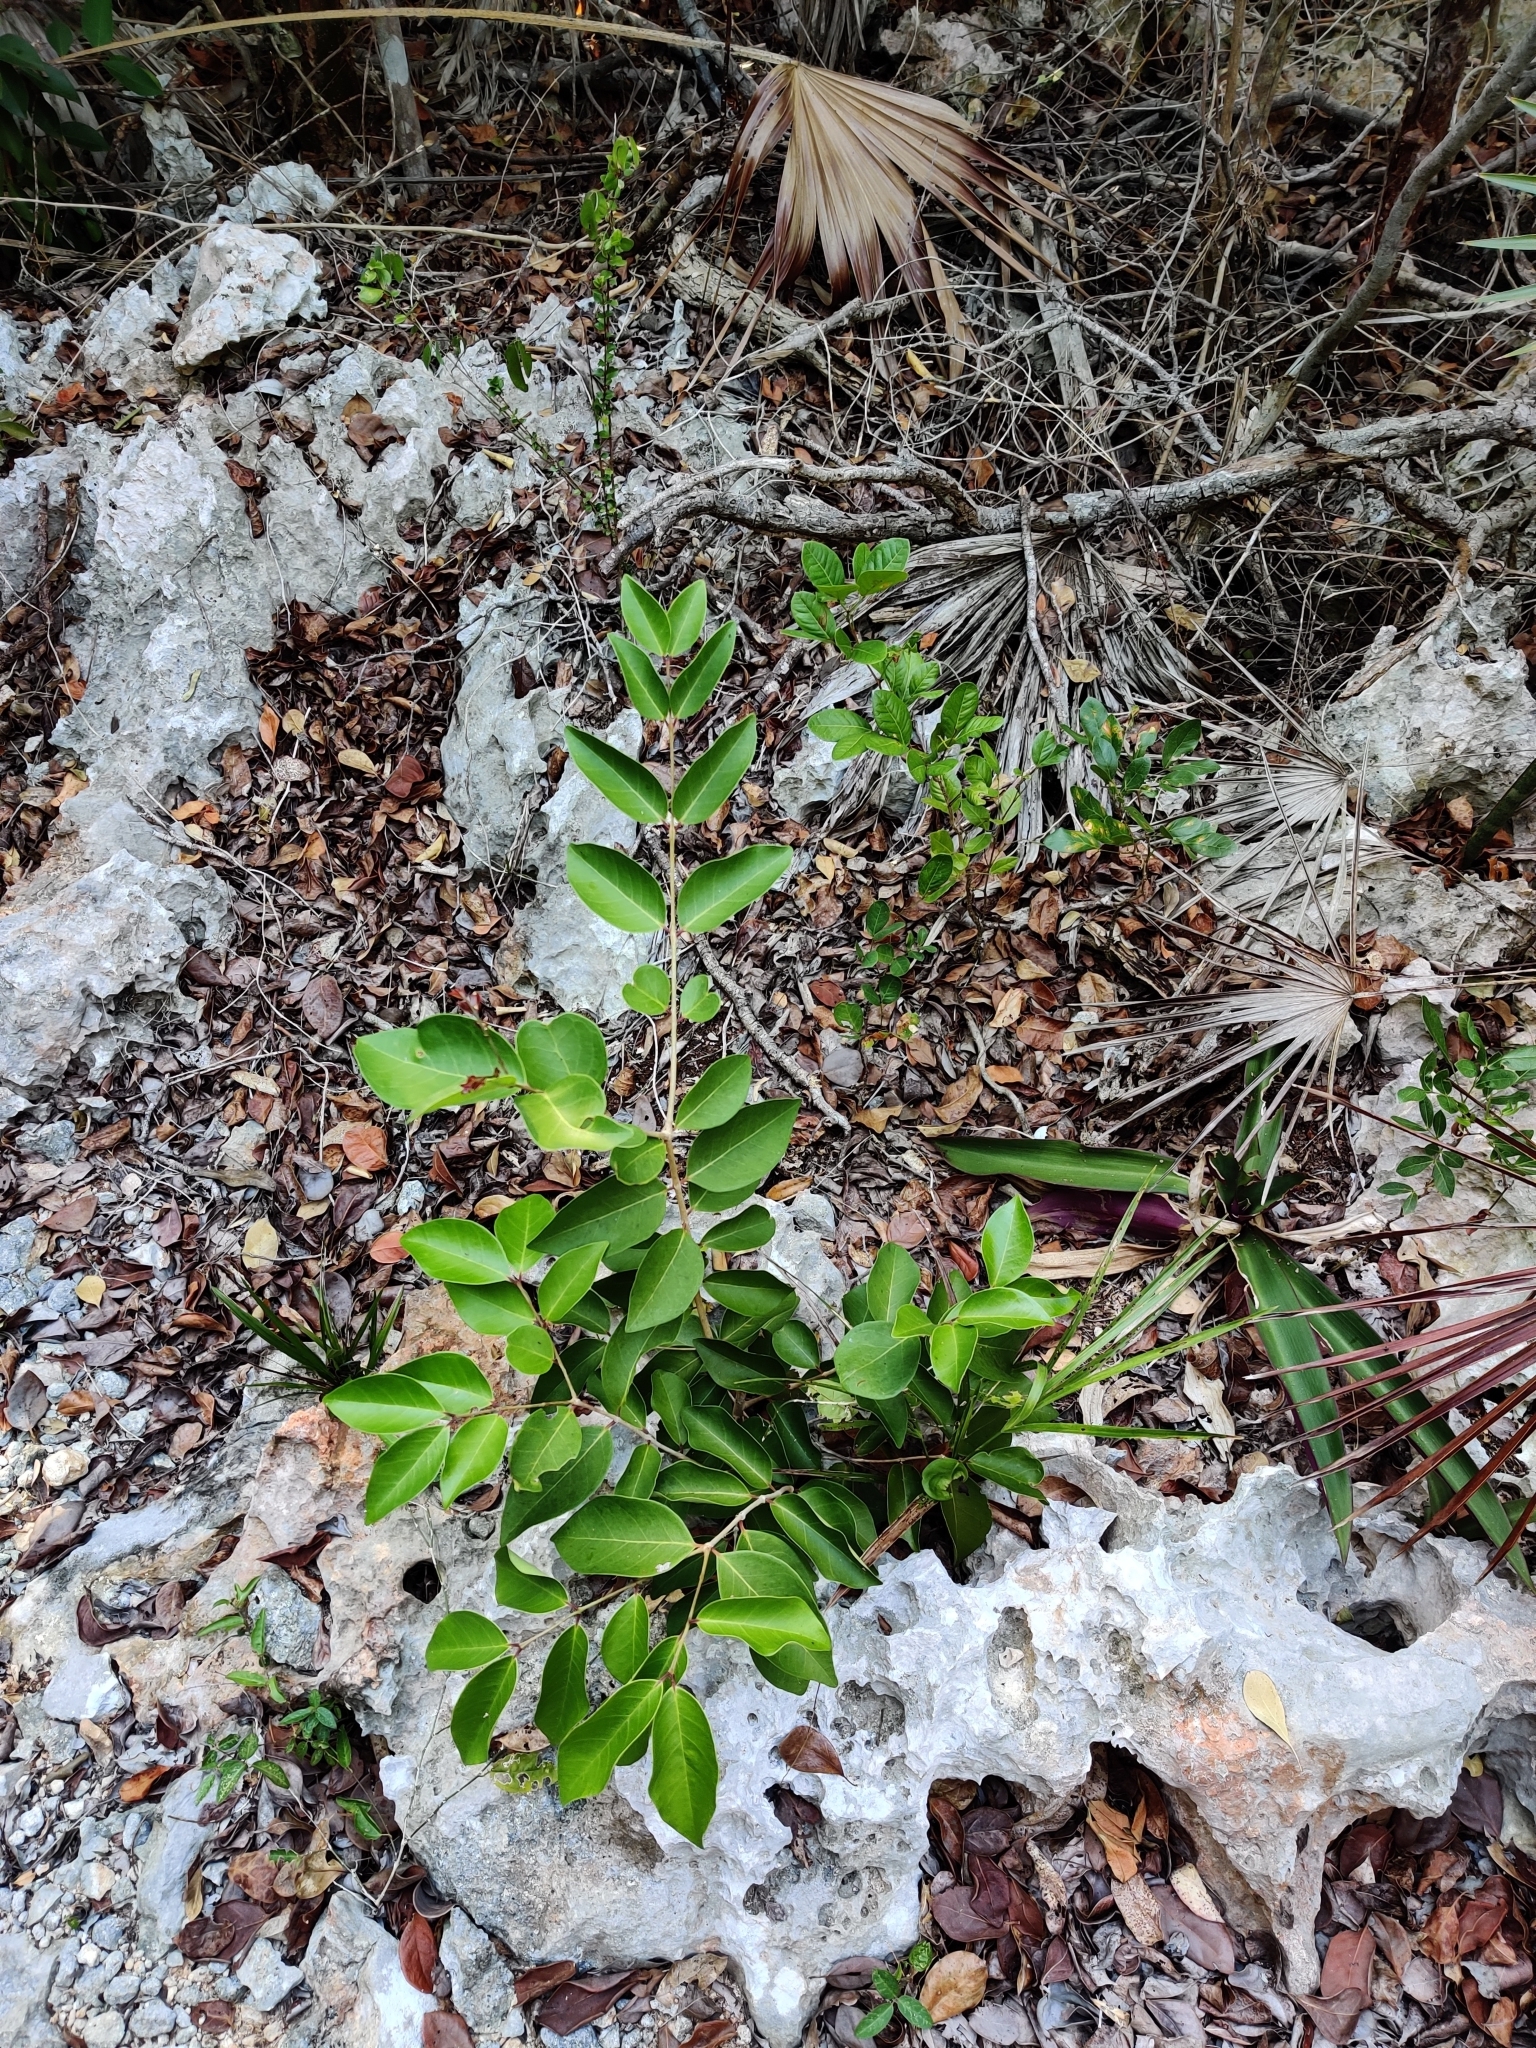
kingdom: Plantae
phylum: Tracheophyta
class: Magnoliopsida
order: Myrtales
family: Myrtaceae
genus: Eugenia
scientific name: Eugenia axillaris
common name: Choaky berry
